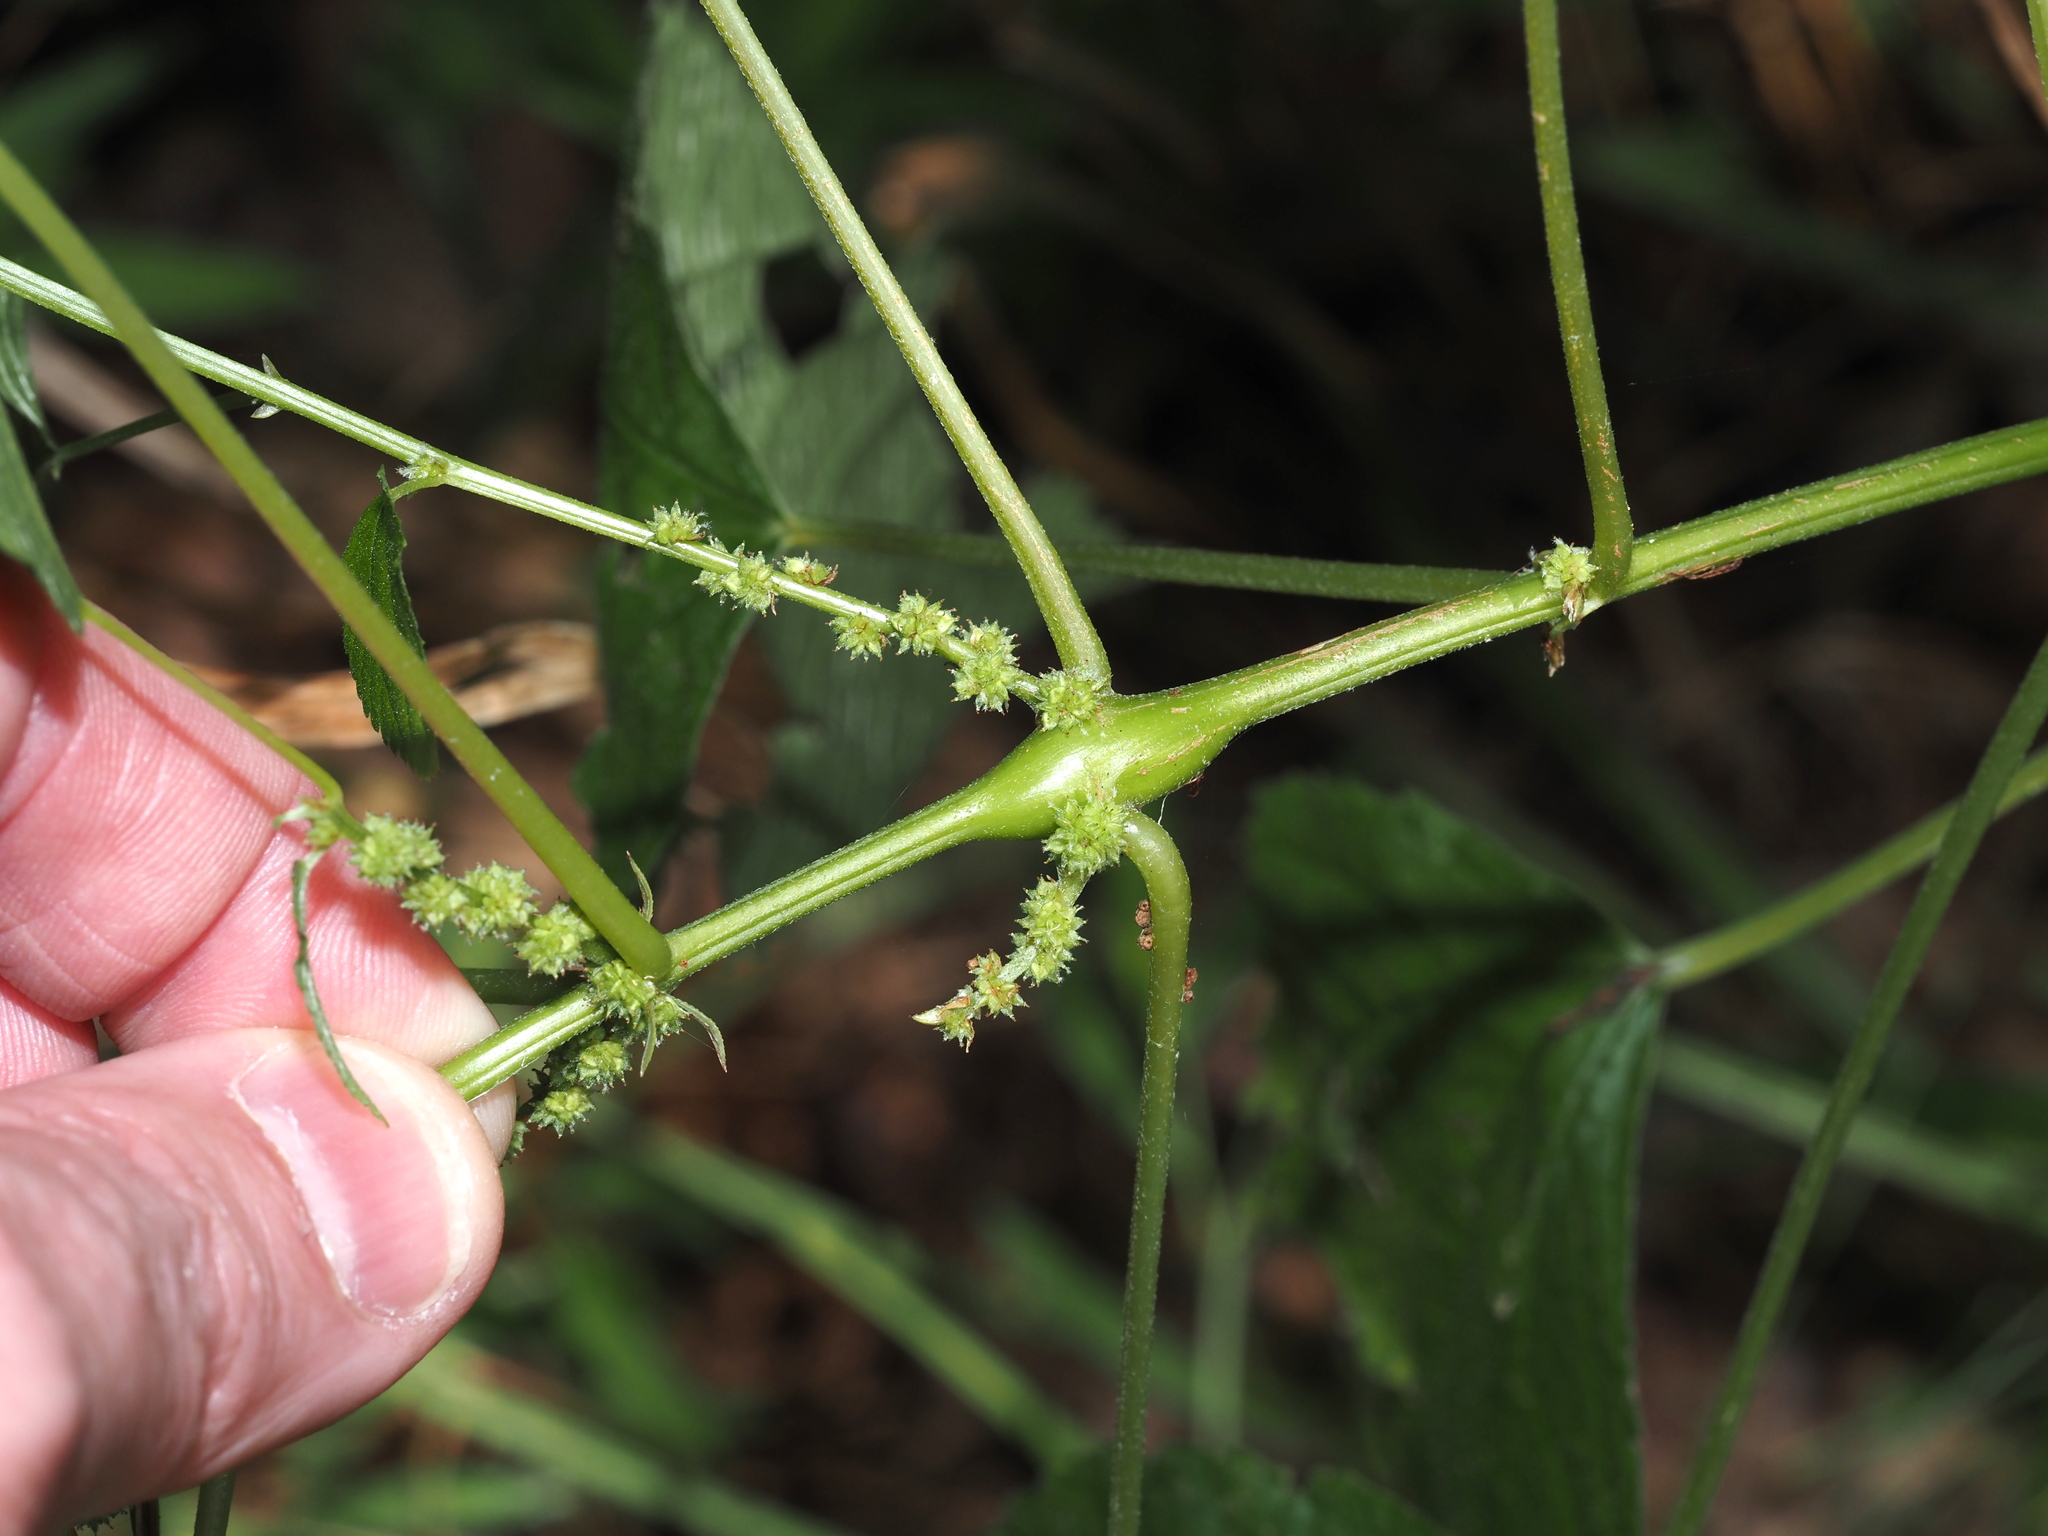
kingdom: Animalia
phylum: Arthropoda
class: Insecta
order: Diptera
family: Cecidomyiidae
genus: Neolasioptera
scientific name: Neolasioptera boehmeriae
